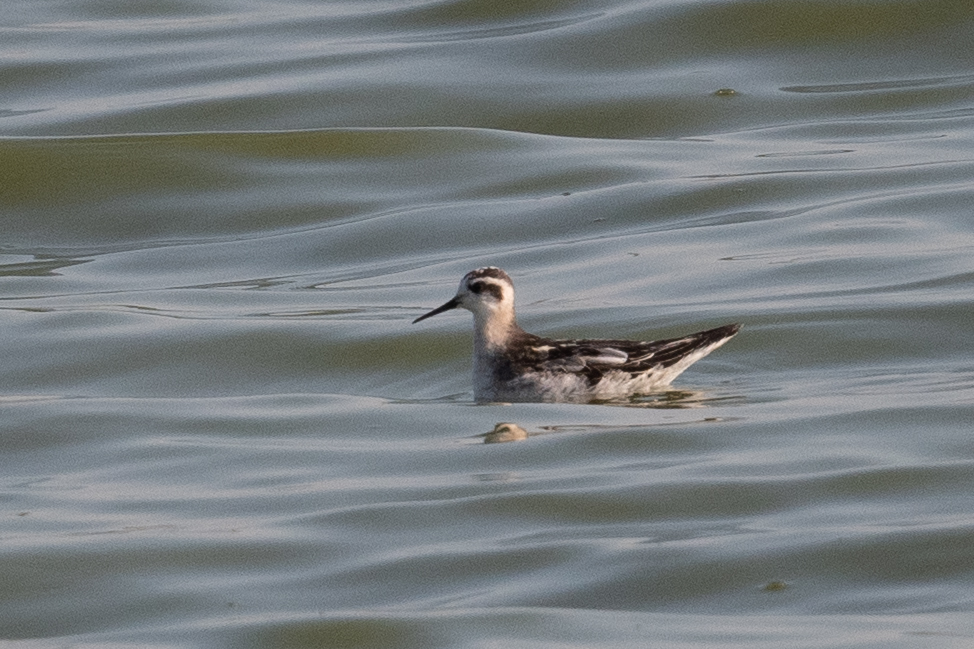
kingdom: Animalia
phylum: Chordata
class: Aves
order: Charadriiformes
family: Scolopacidae
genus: Phalaropus
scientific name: Phalaropus lobatus
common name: Red-necked phalarope
